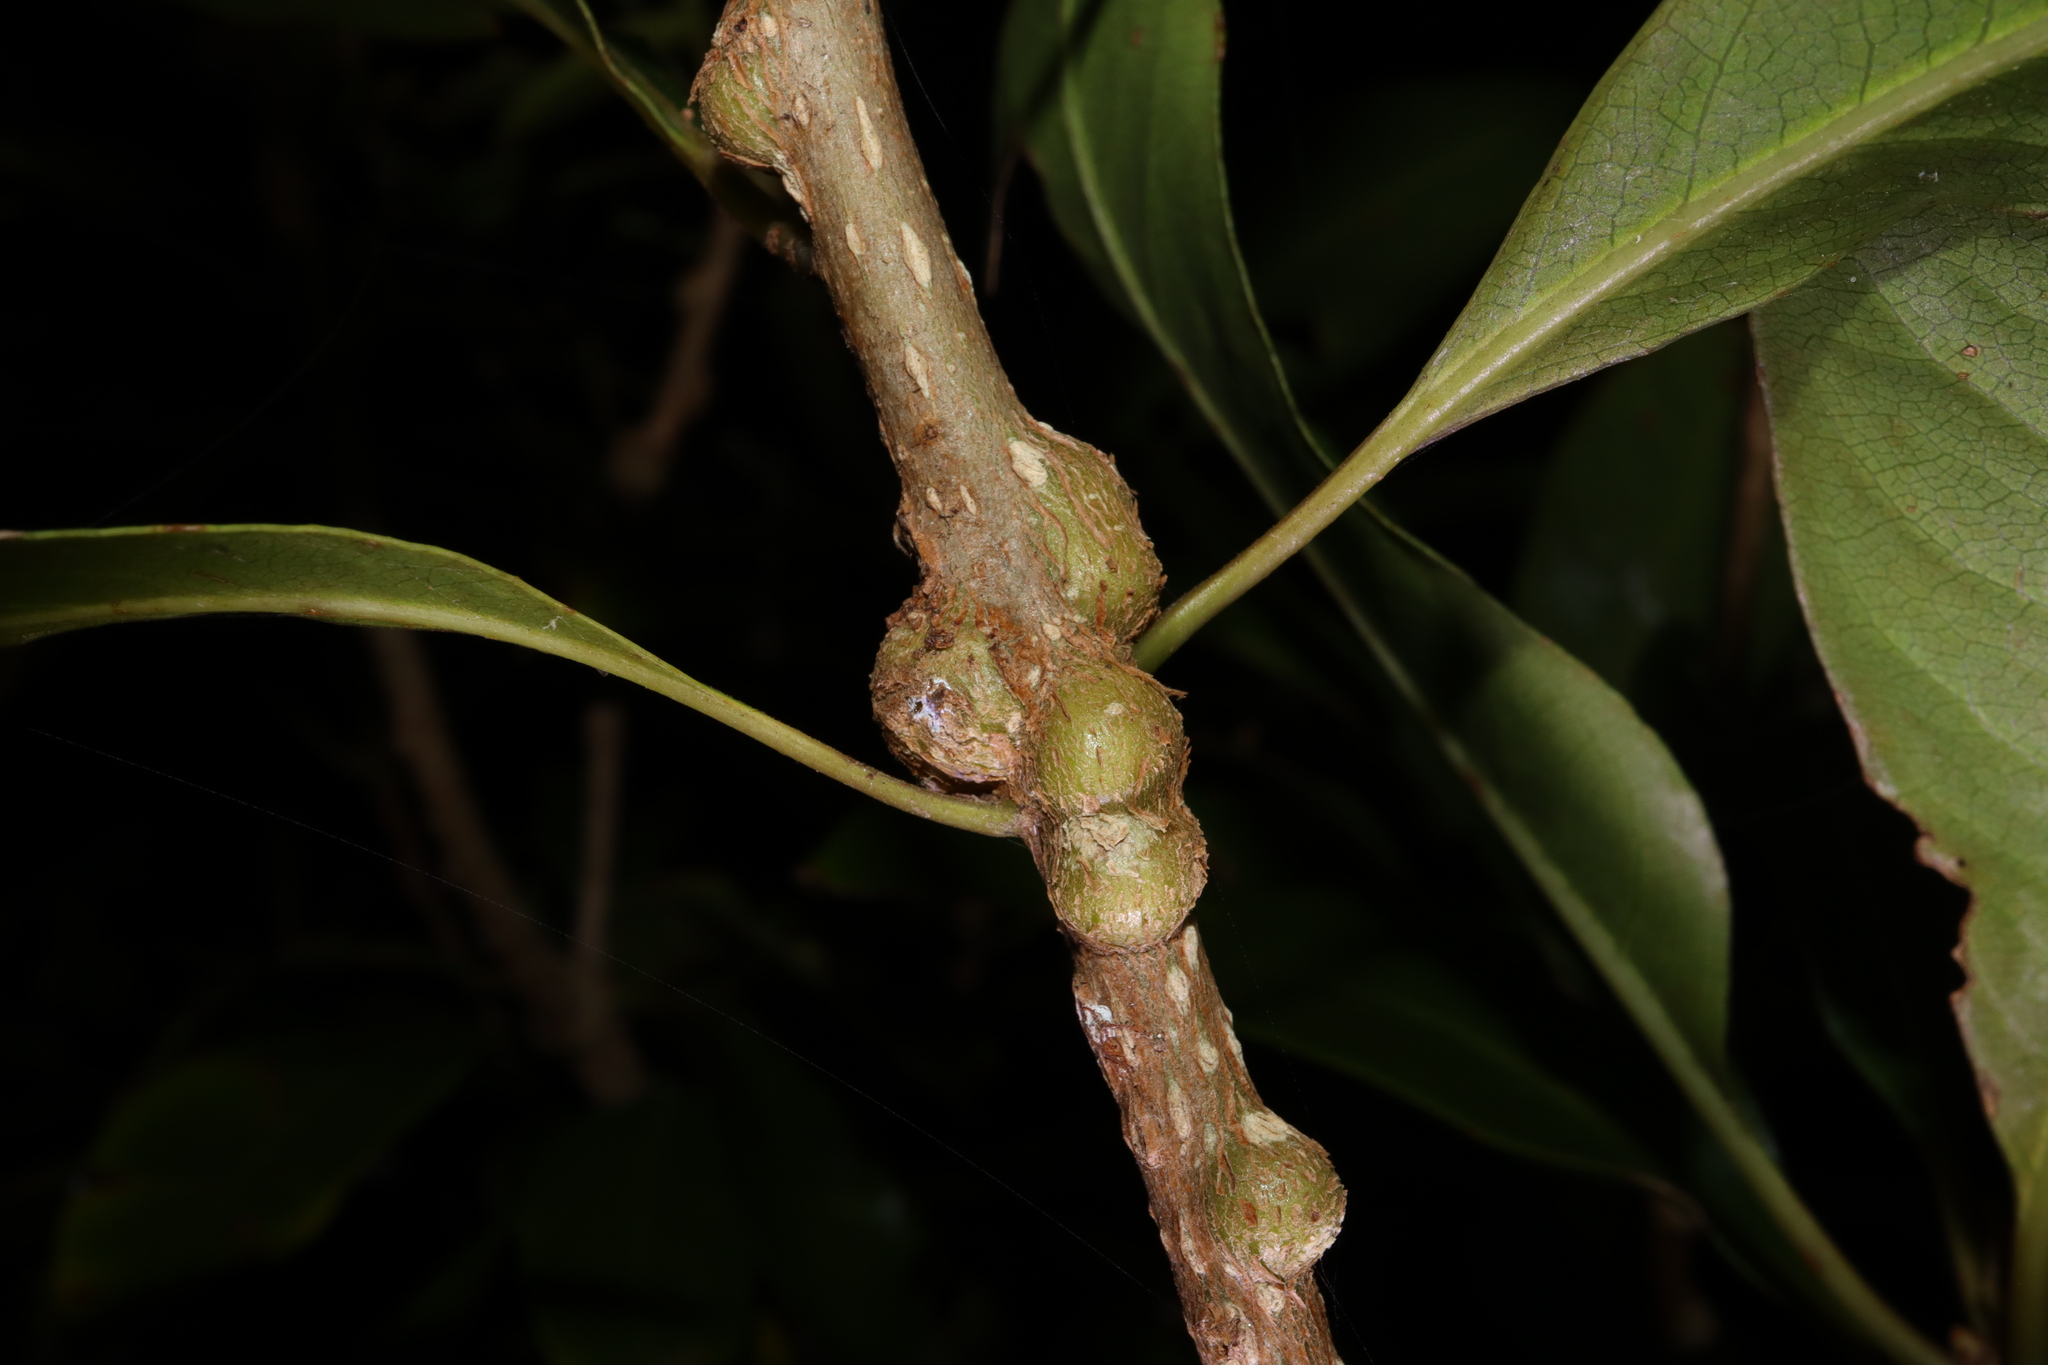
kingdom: Animalia
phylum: Arthropoda
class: Insecta
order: Diptera
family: Agromyzidae
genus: Phytoliriomyza
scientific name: Phytoliriomyza pittosporocaulis
